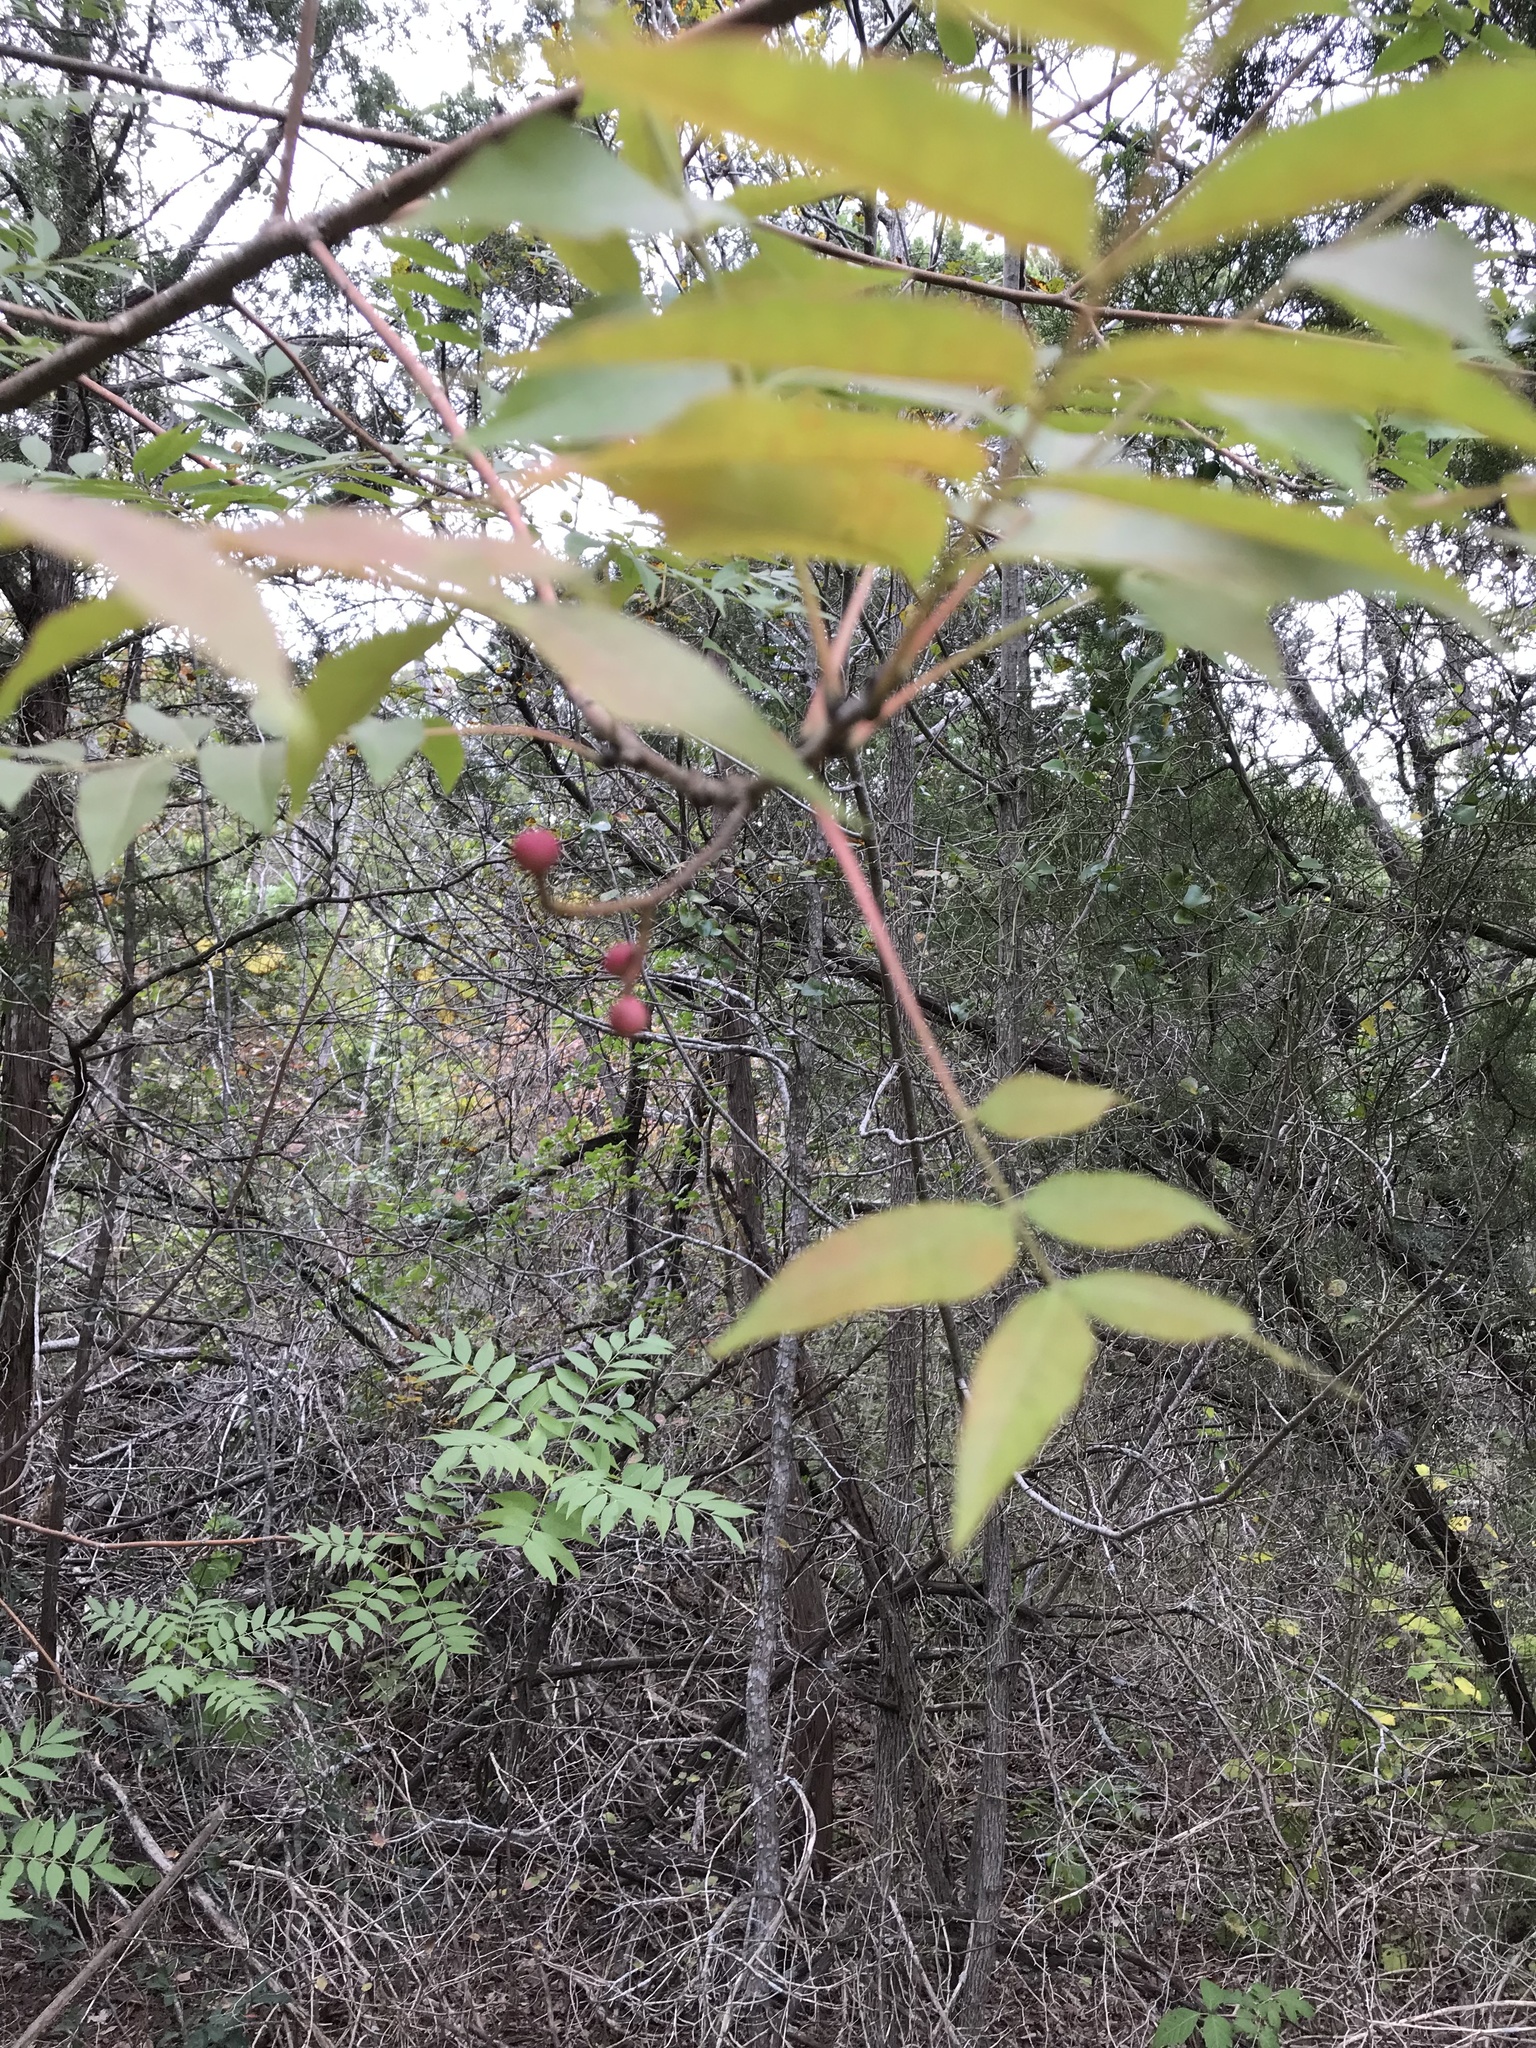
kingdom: Plantae
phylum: Tracheophyta
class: Magnoliopsida
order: Sapindales
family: Anacardiaceae
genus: Pistacia
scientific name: Pistacia chinensis
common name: Chinese pistache
